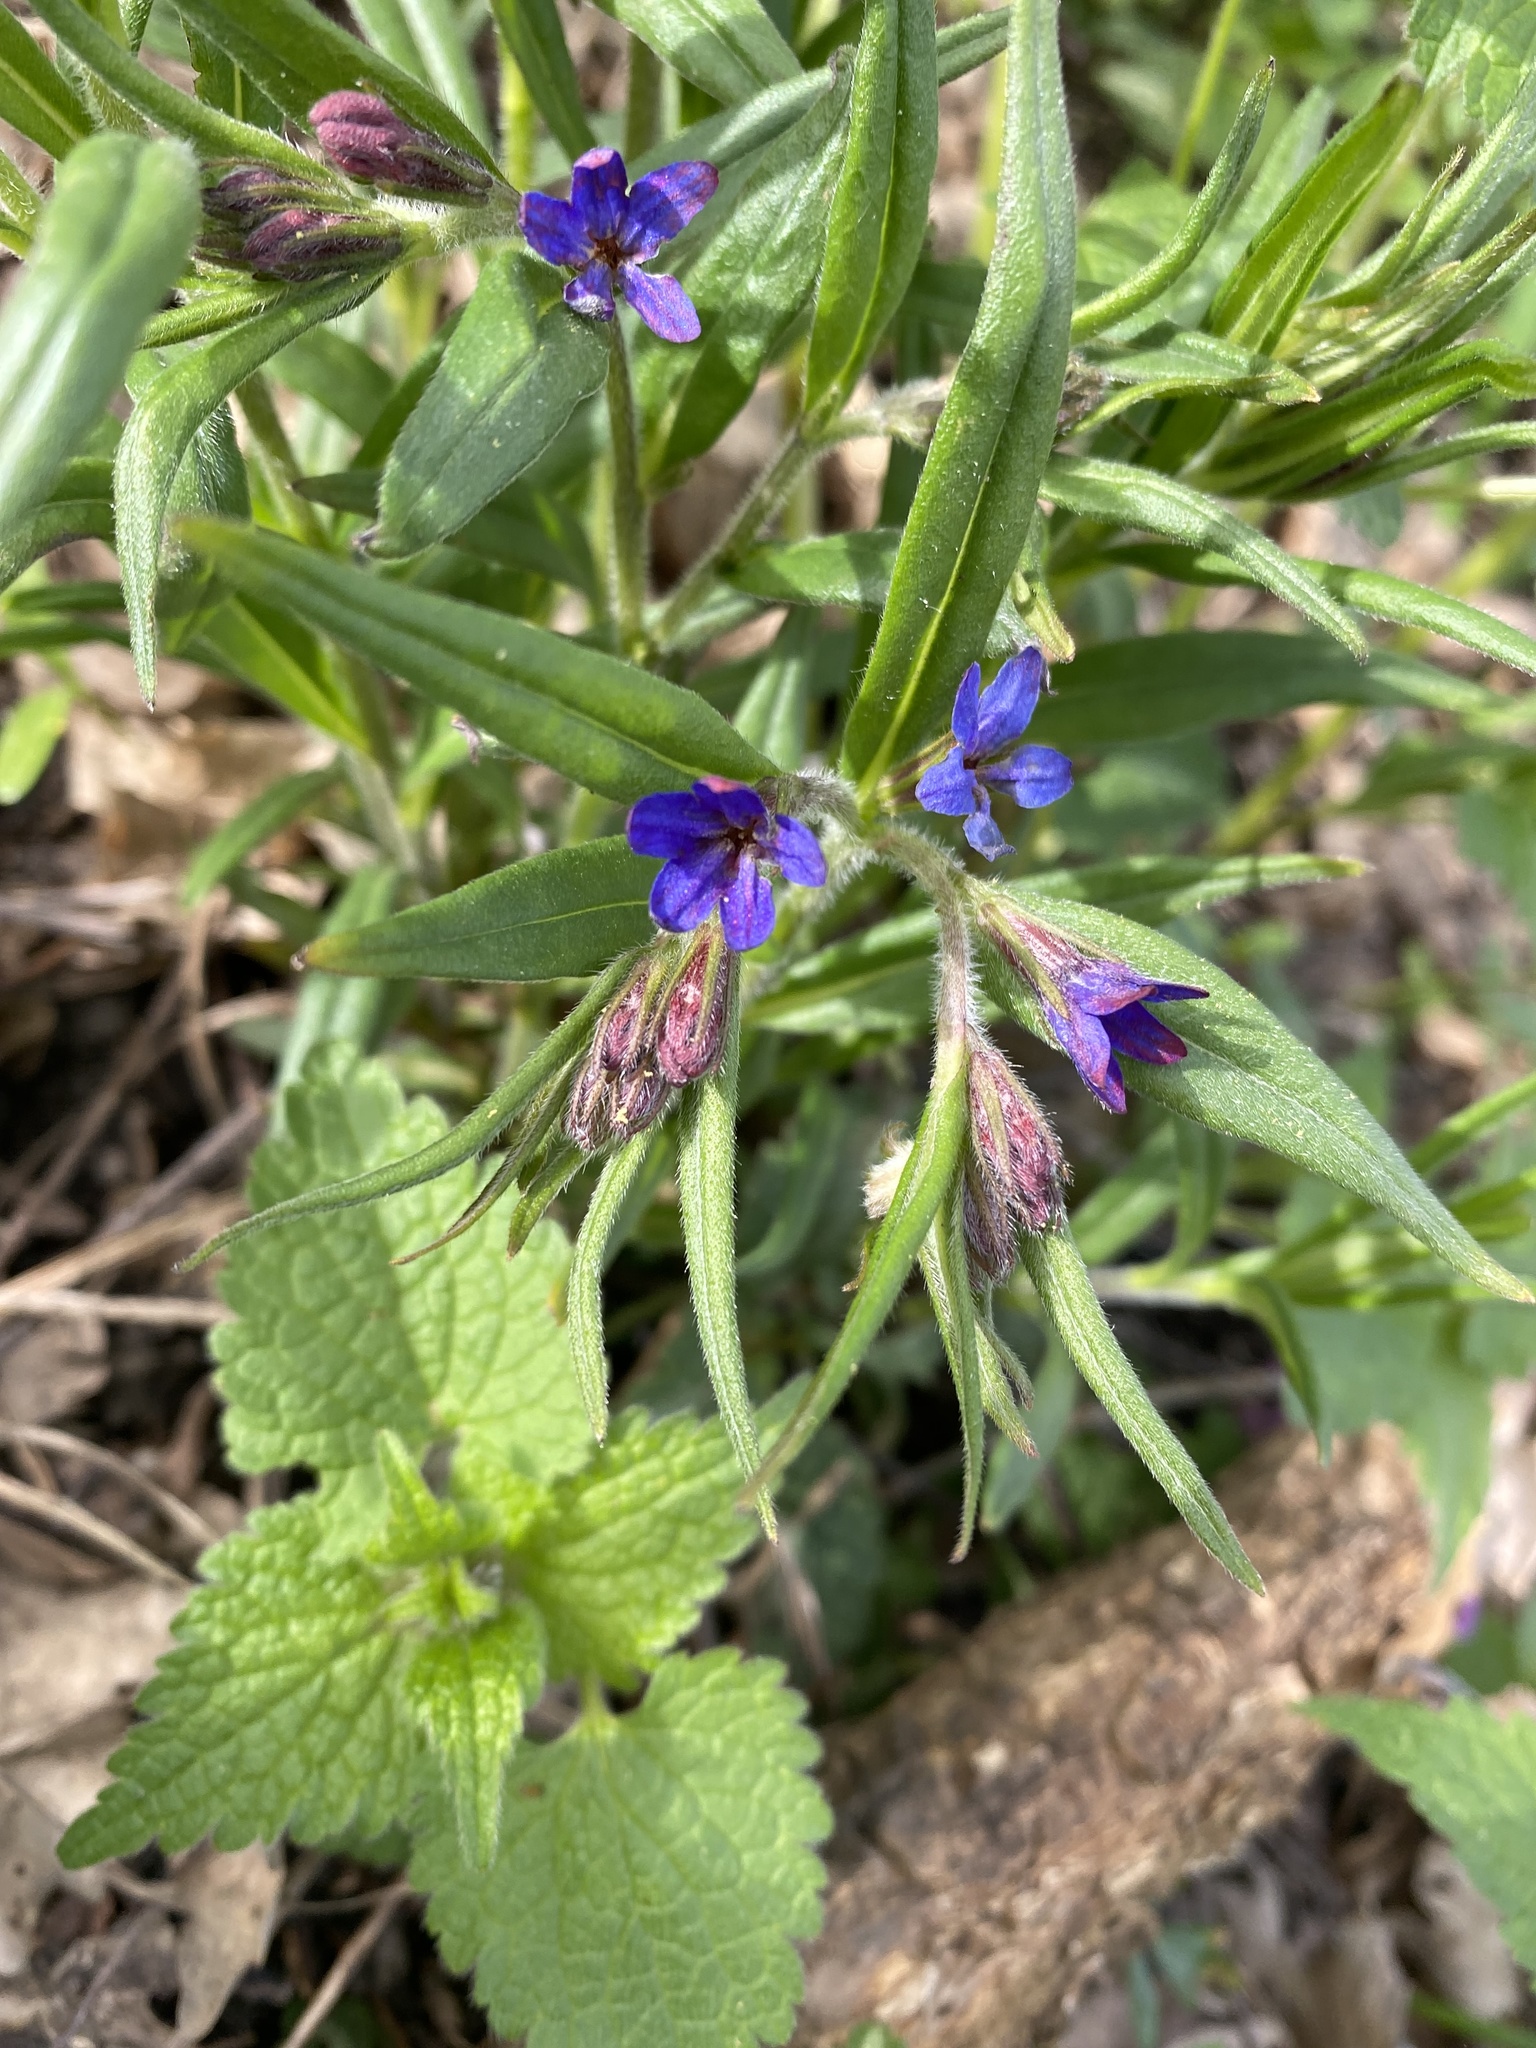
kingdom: Plantae
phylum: Tracheophyta
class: Magnoliopsida
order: Boraginales
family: Boraginaceae
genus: Aegonychon
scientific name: Aegonychon purpurocaeruleum
